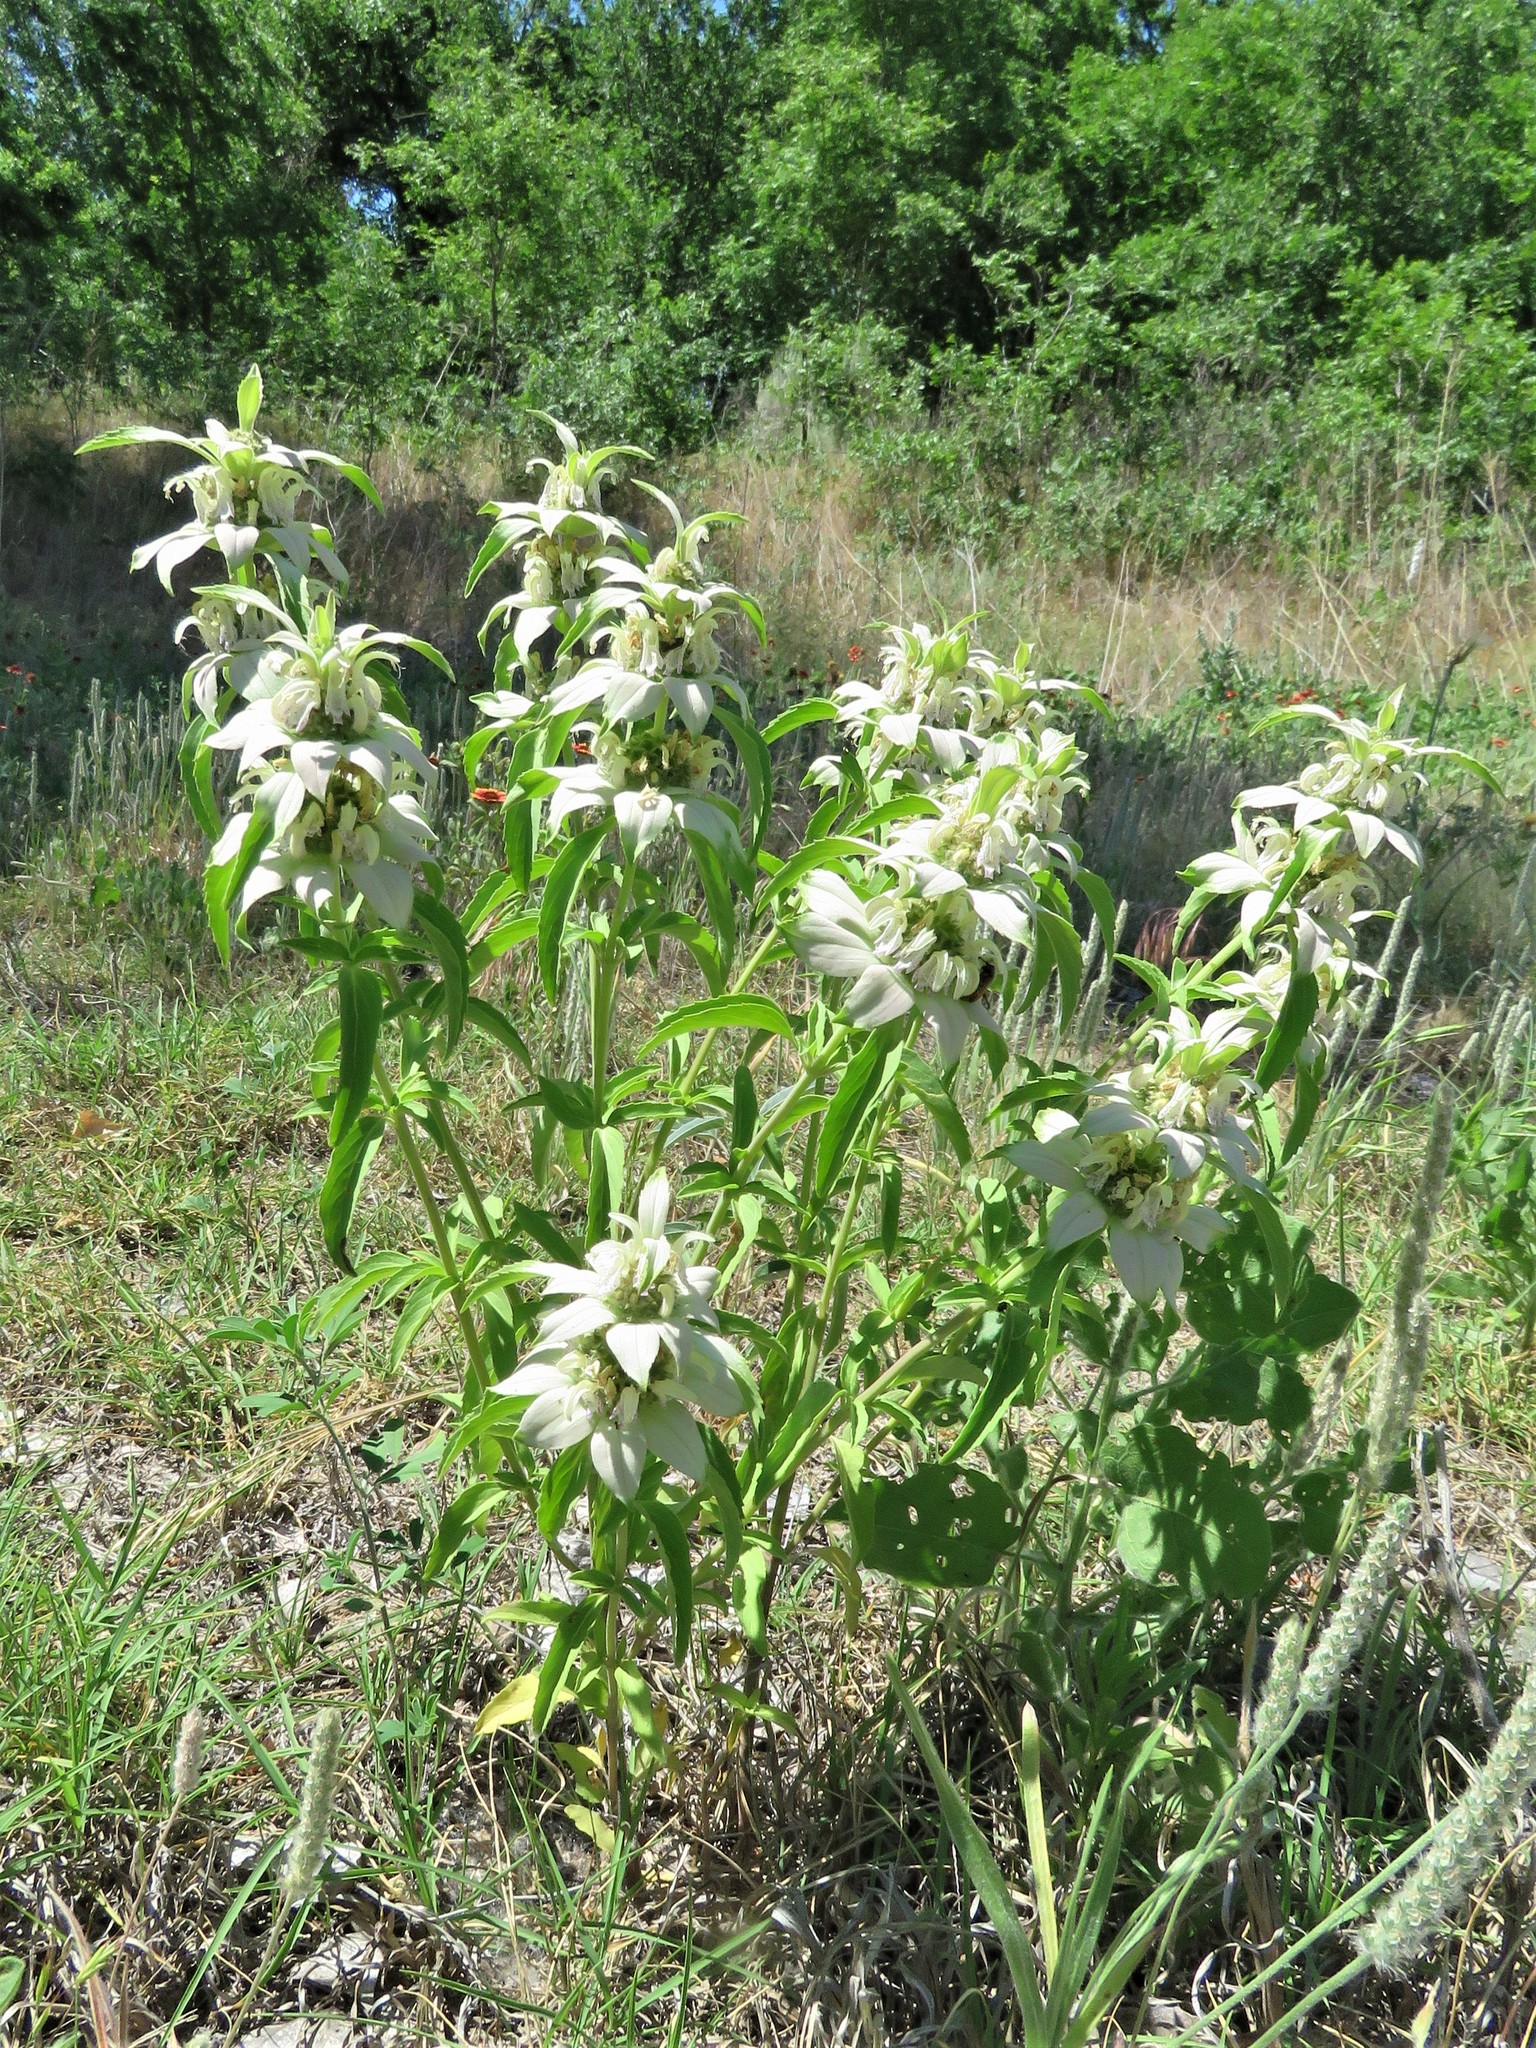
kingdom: Plantae
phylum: Tracheophyta
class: Magnoliopsida
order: Lamiales
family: Lamiaceae
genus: Monarda
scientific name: Monarda punctata
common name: Dotted monarda
